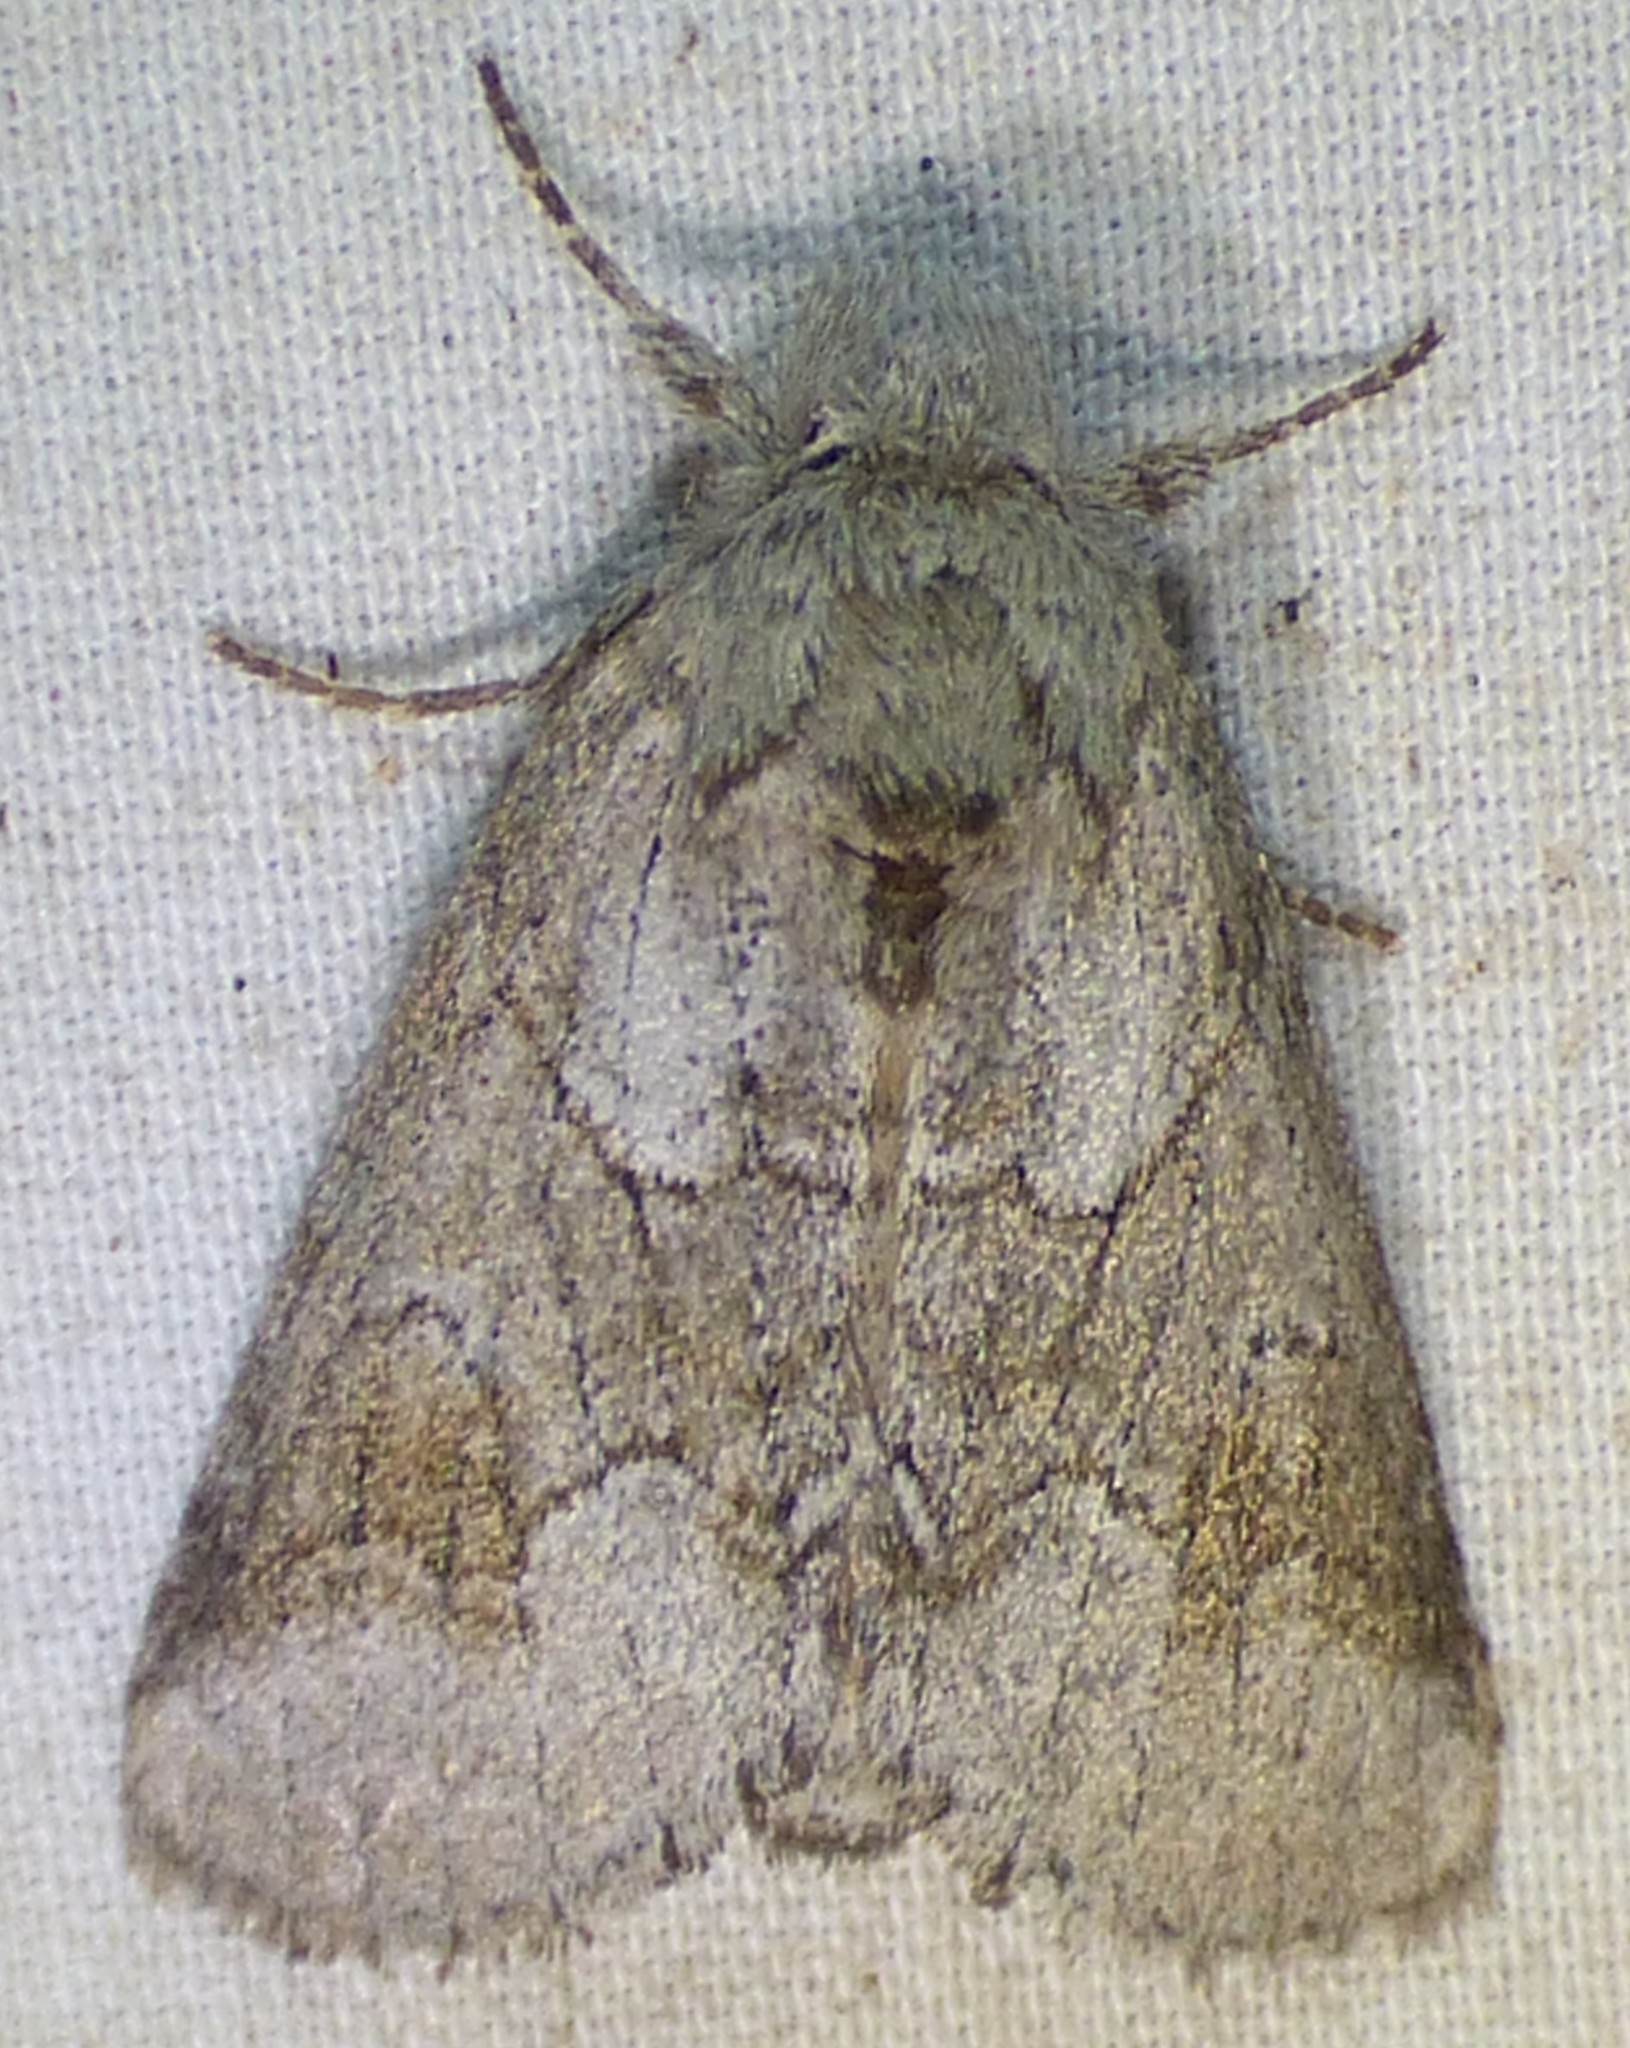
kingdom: Animalia
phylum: Arthropoda
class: Insecta
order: Lepidoptera
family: Notodontidae
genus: Lochmaeus
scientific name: Lochmaeus bilineata
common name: Double-lined prominent
